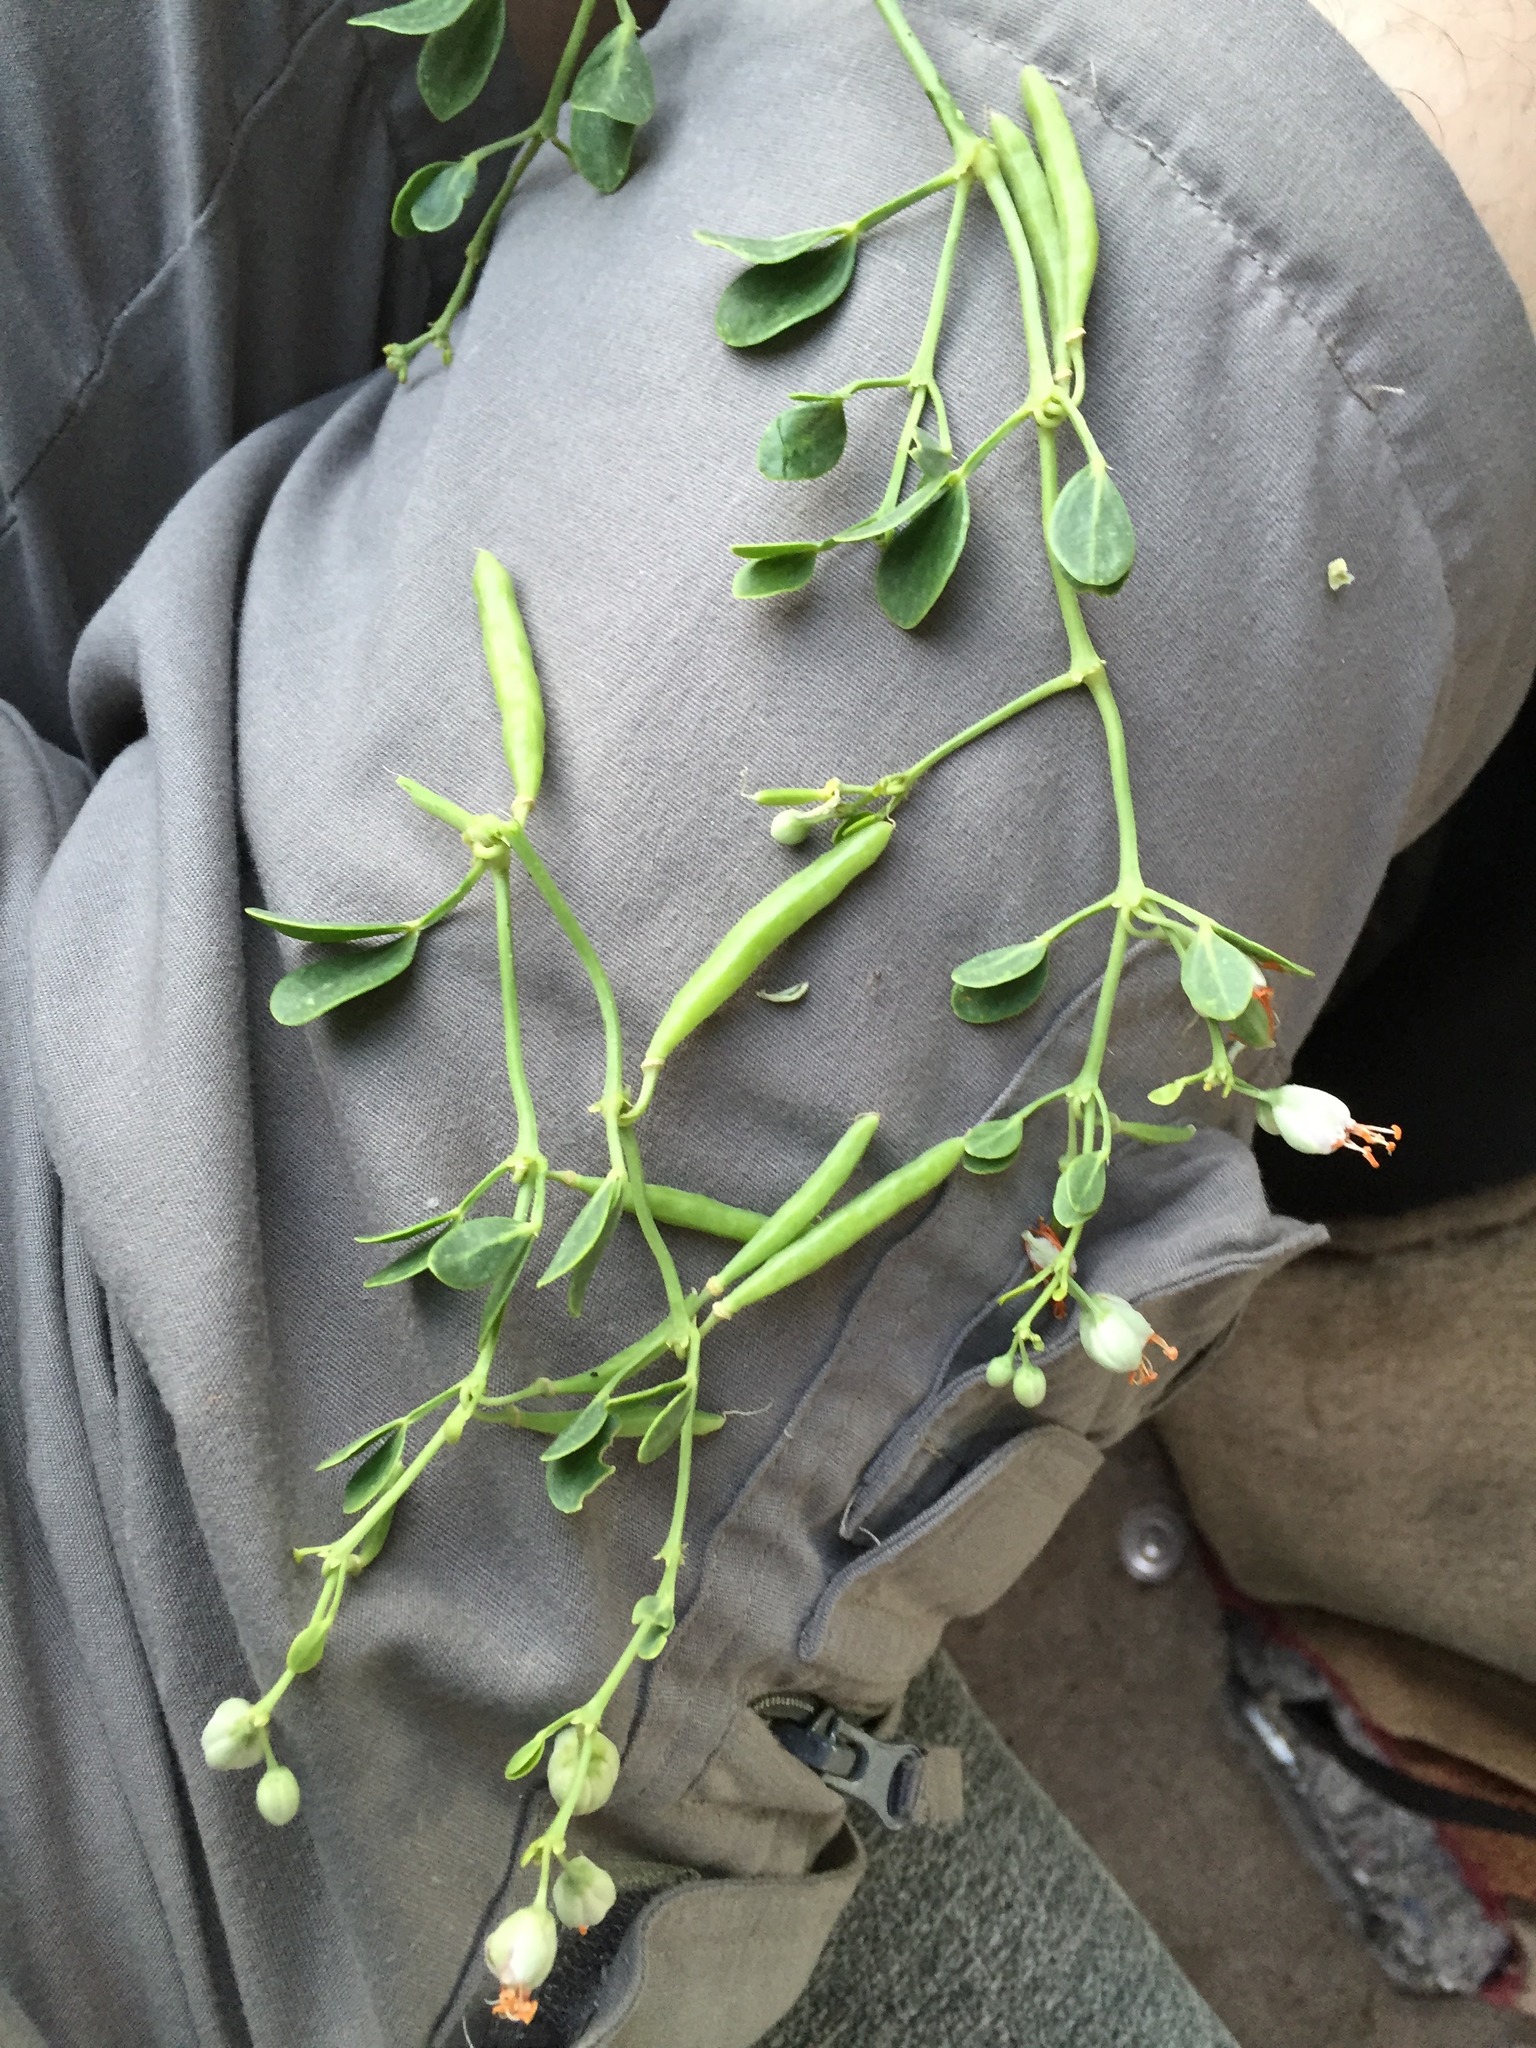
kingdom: Plantae
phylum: Tracheophyta
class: Magnoliopsida
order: Zygophyllales
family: Zygophyllaceae
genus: Zygophyllum
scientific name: Zygophyllum fabago
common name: Syrian beancaper
